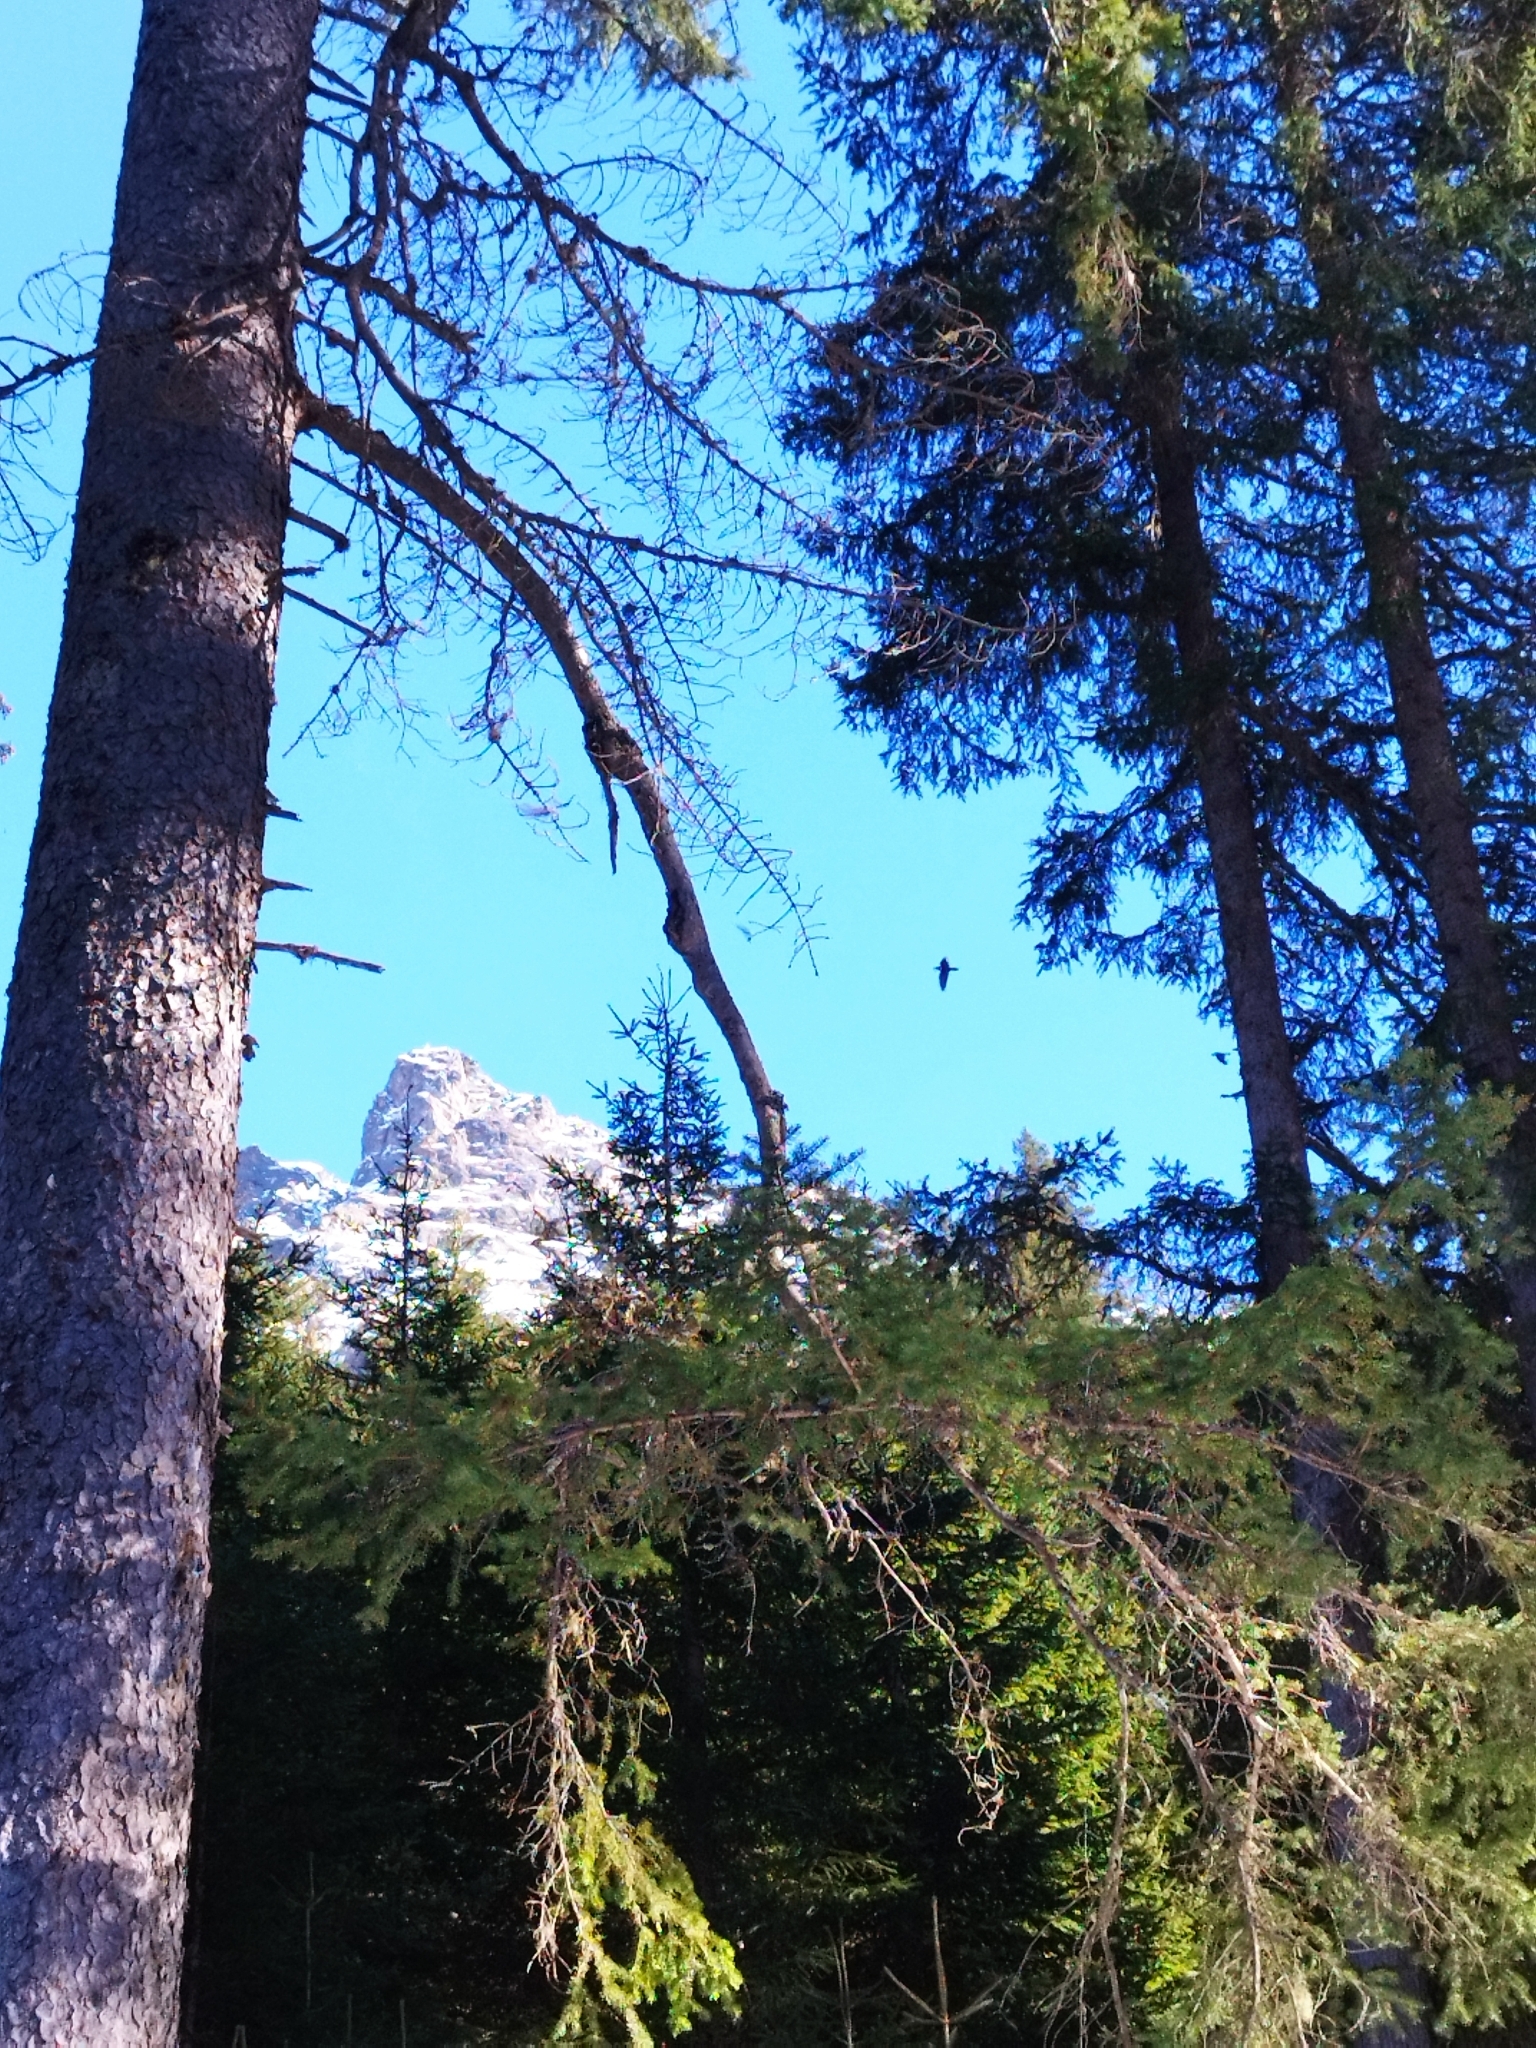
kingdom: Animalia
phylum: Chordata
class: Aves
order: Passeriformes
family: Corvidae
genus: Corvus
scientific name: Corvus corax
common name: Common raven
